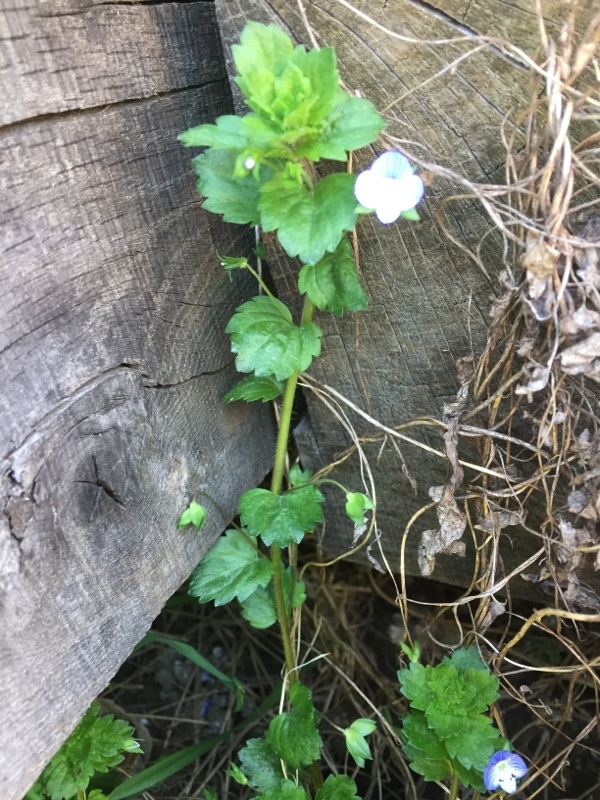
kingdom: Plantae
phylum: Tracheophyta
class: Magnoliopsida
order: Lamiales
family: Plantaginaceae
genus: Veronica
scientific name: Veronica persica
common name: Common field-speedwell
